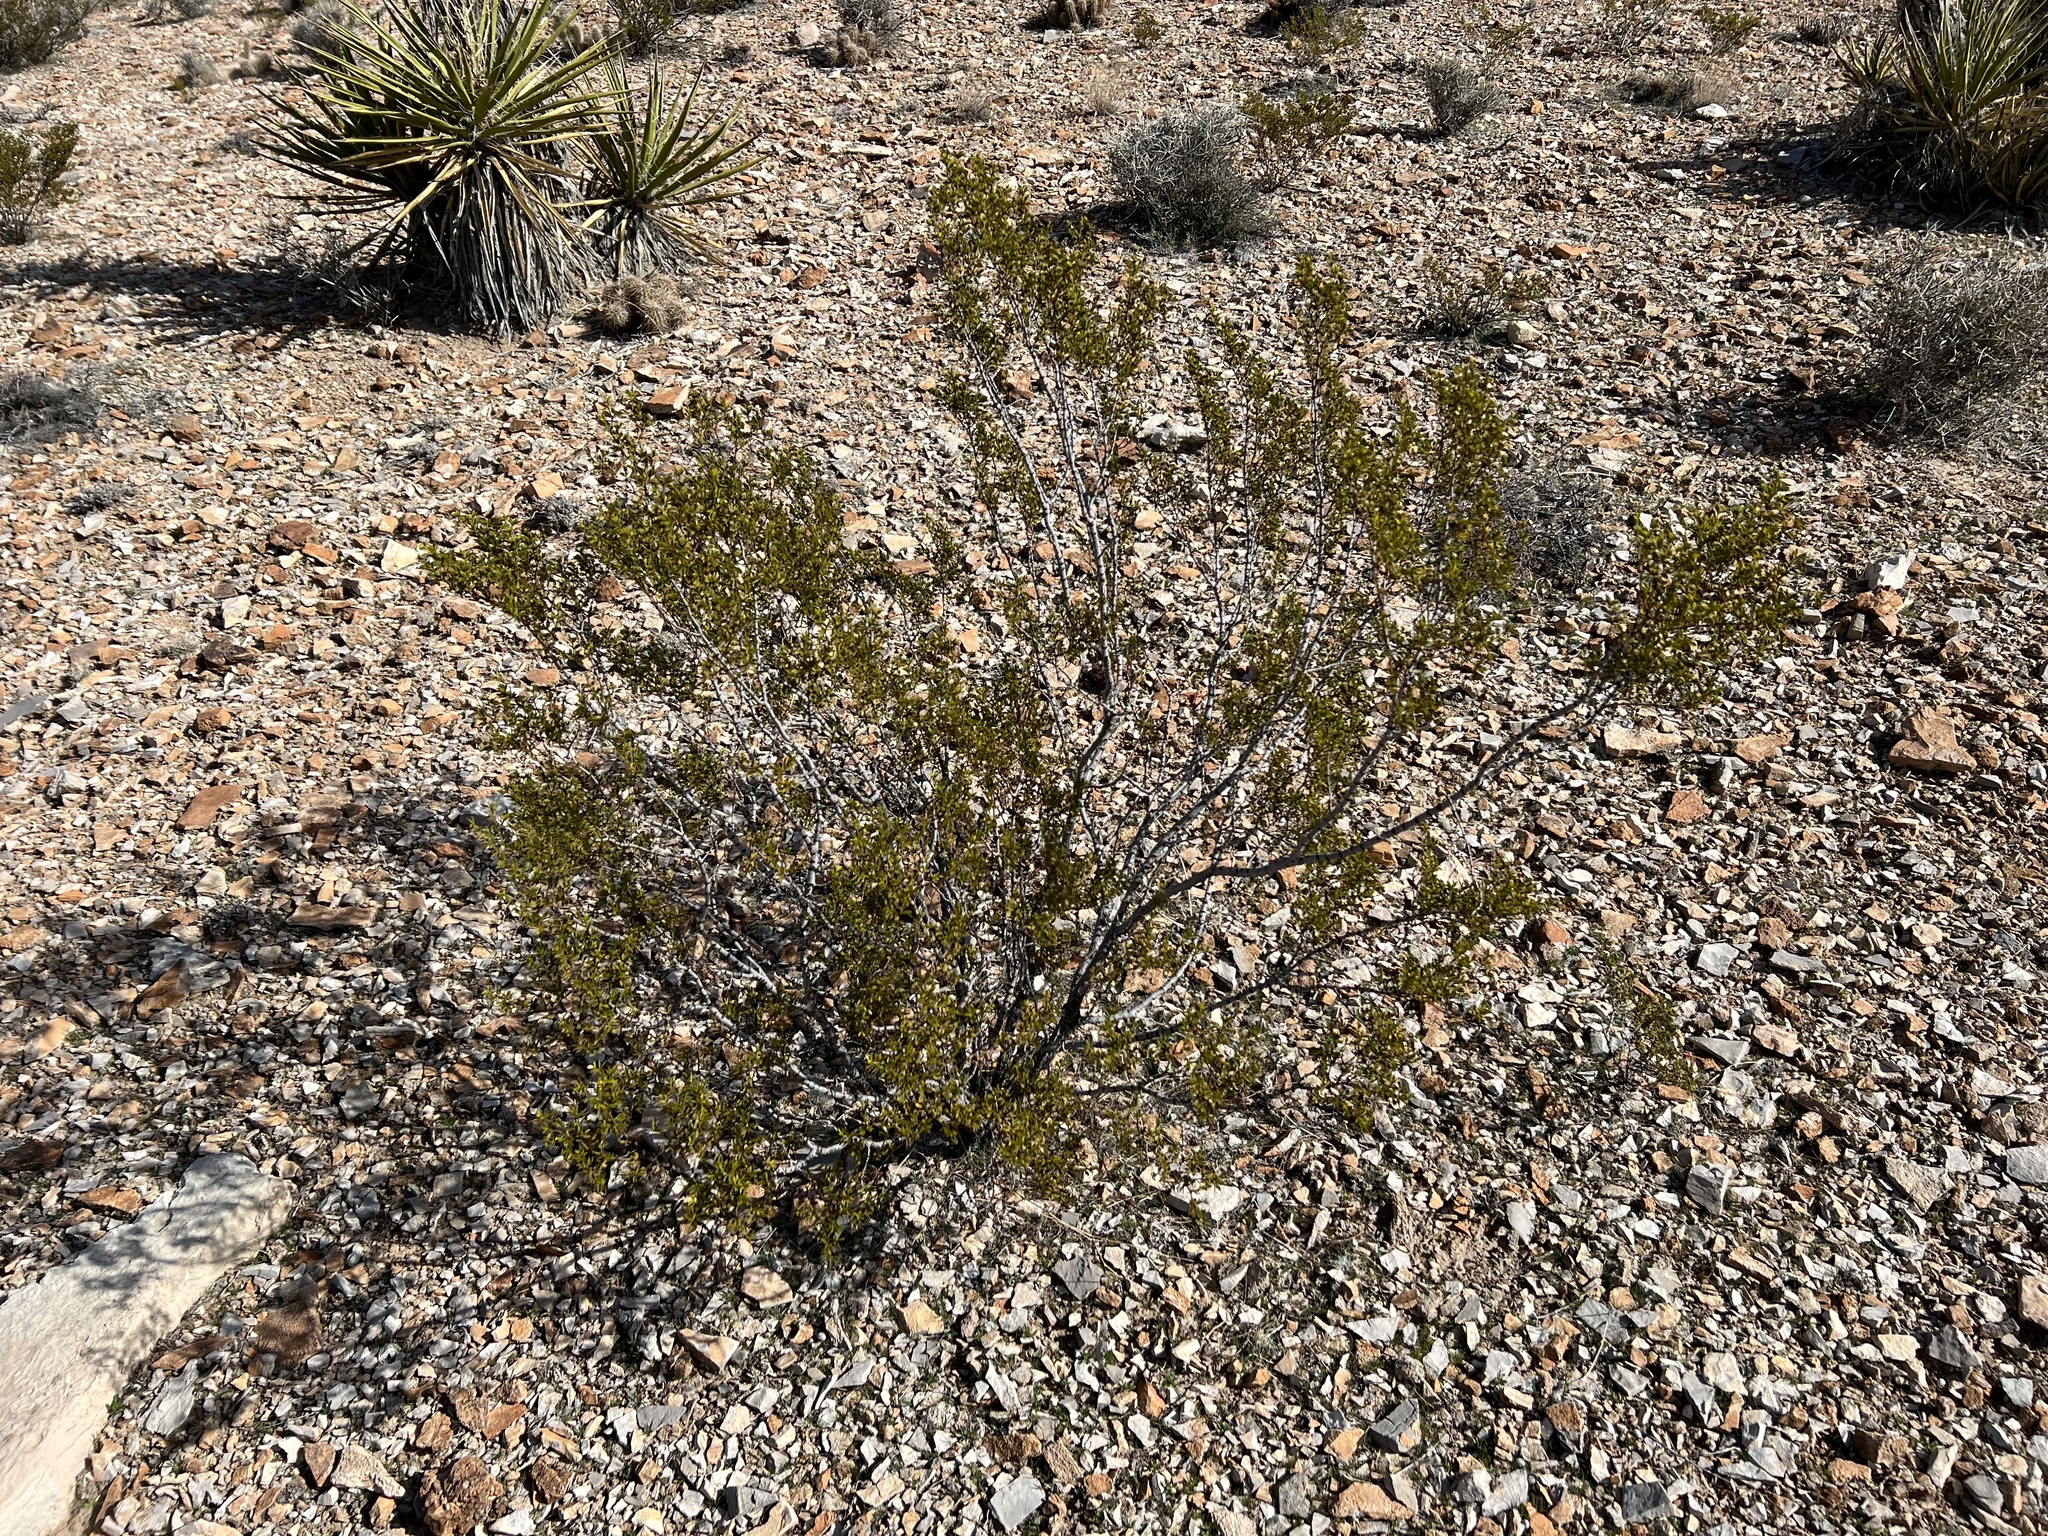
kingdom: Plantae
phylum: Tracheophyta
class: Magnoliopsida
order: Zygophyllales
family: Zygophyllaceae
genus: Larrea
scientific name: Larrea tridentata
